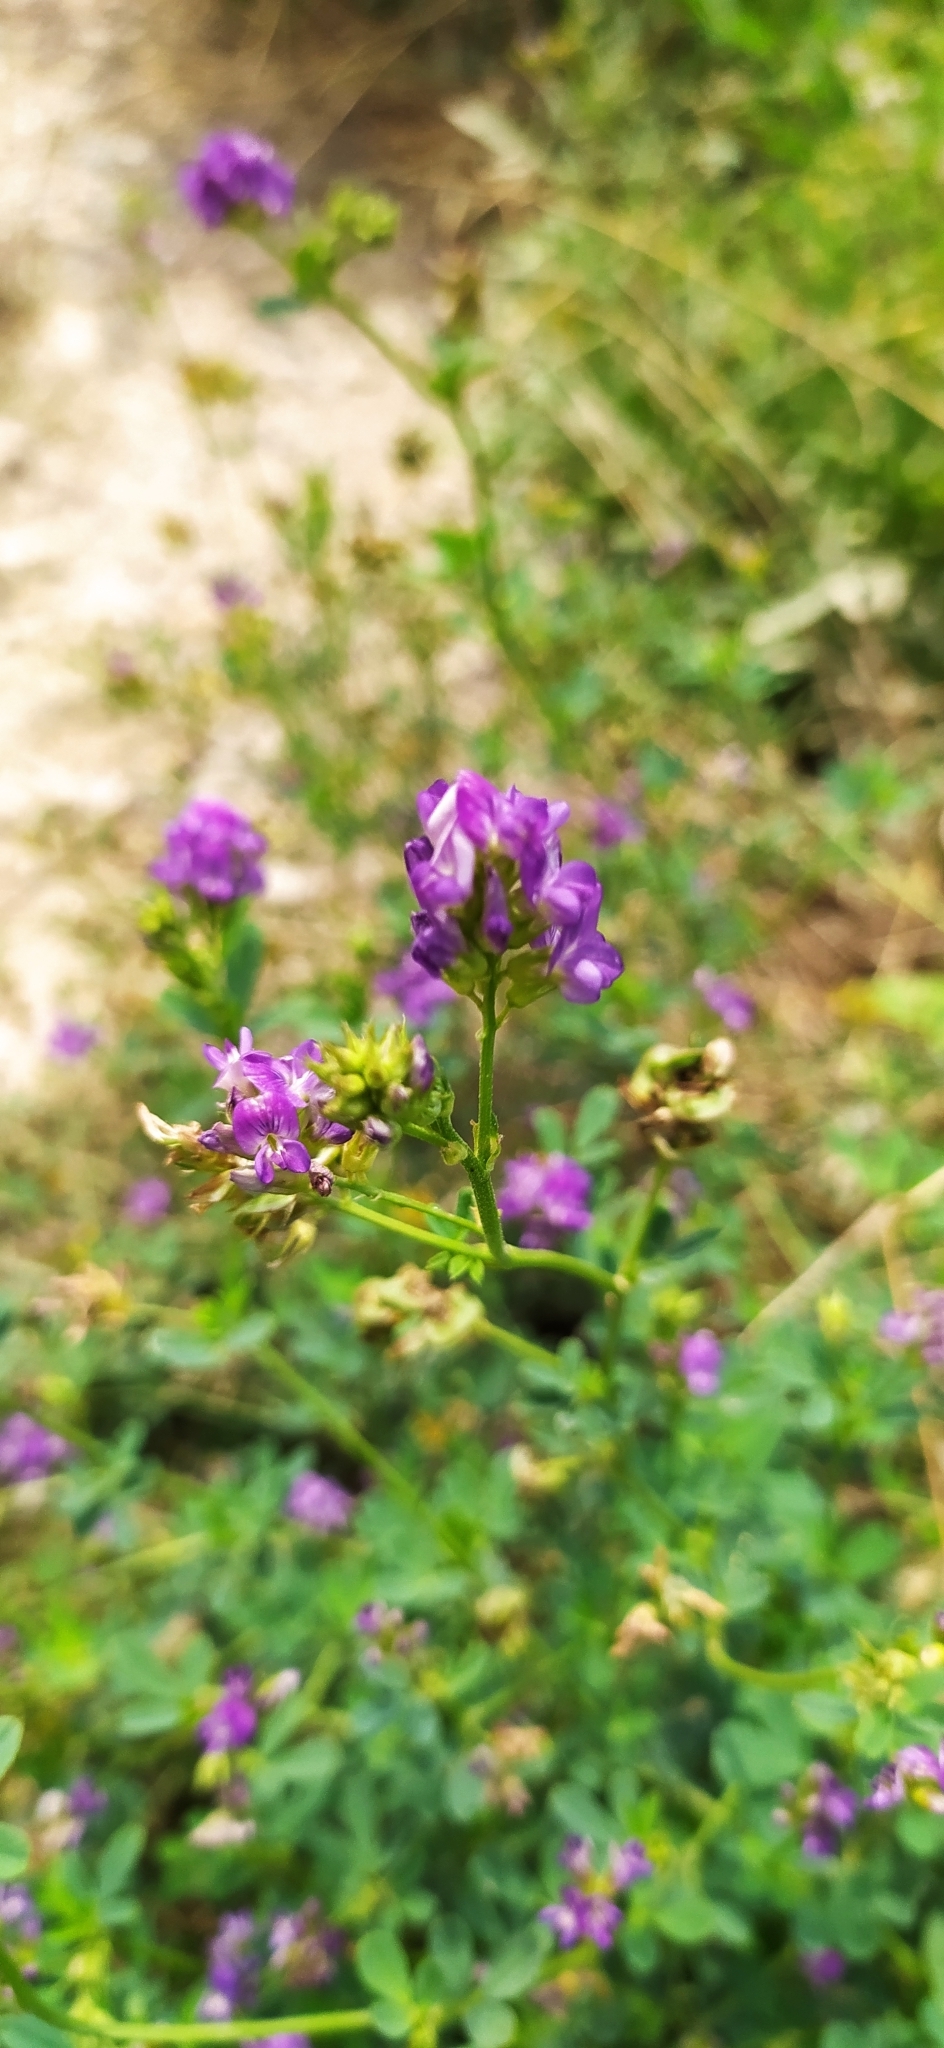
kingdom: Plantae
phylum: Tracheophyta
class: Magnoliopsida
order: Fabales
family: Fabaceae
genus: Medicago
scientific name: Medicago varia
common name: Sand lucerne
